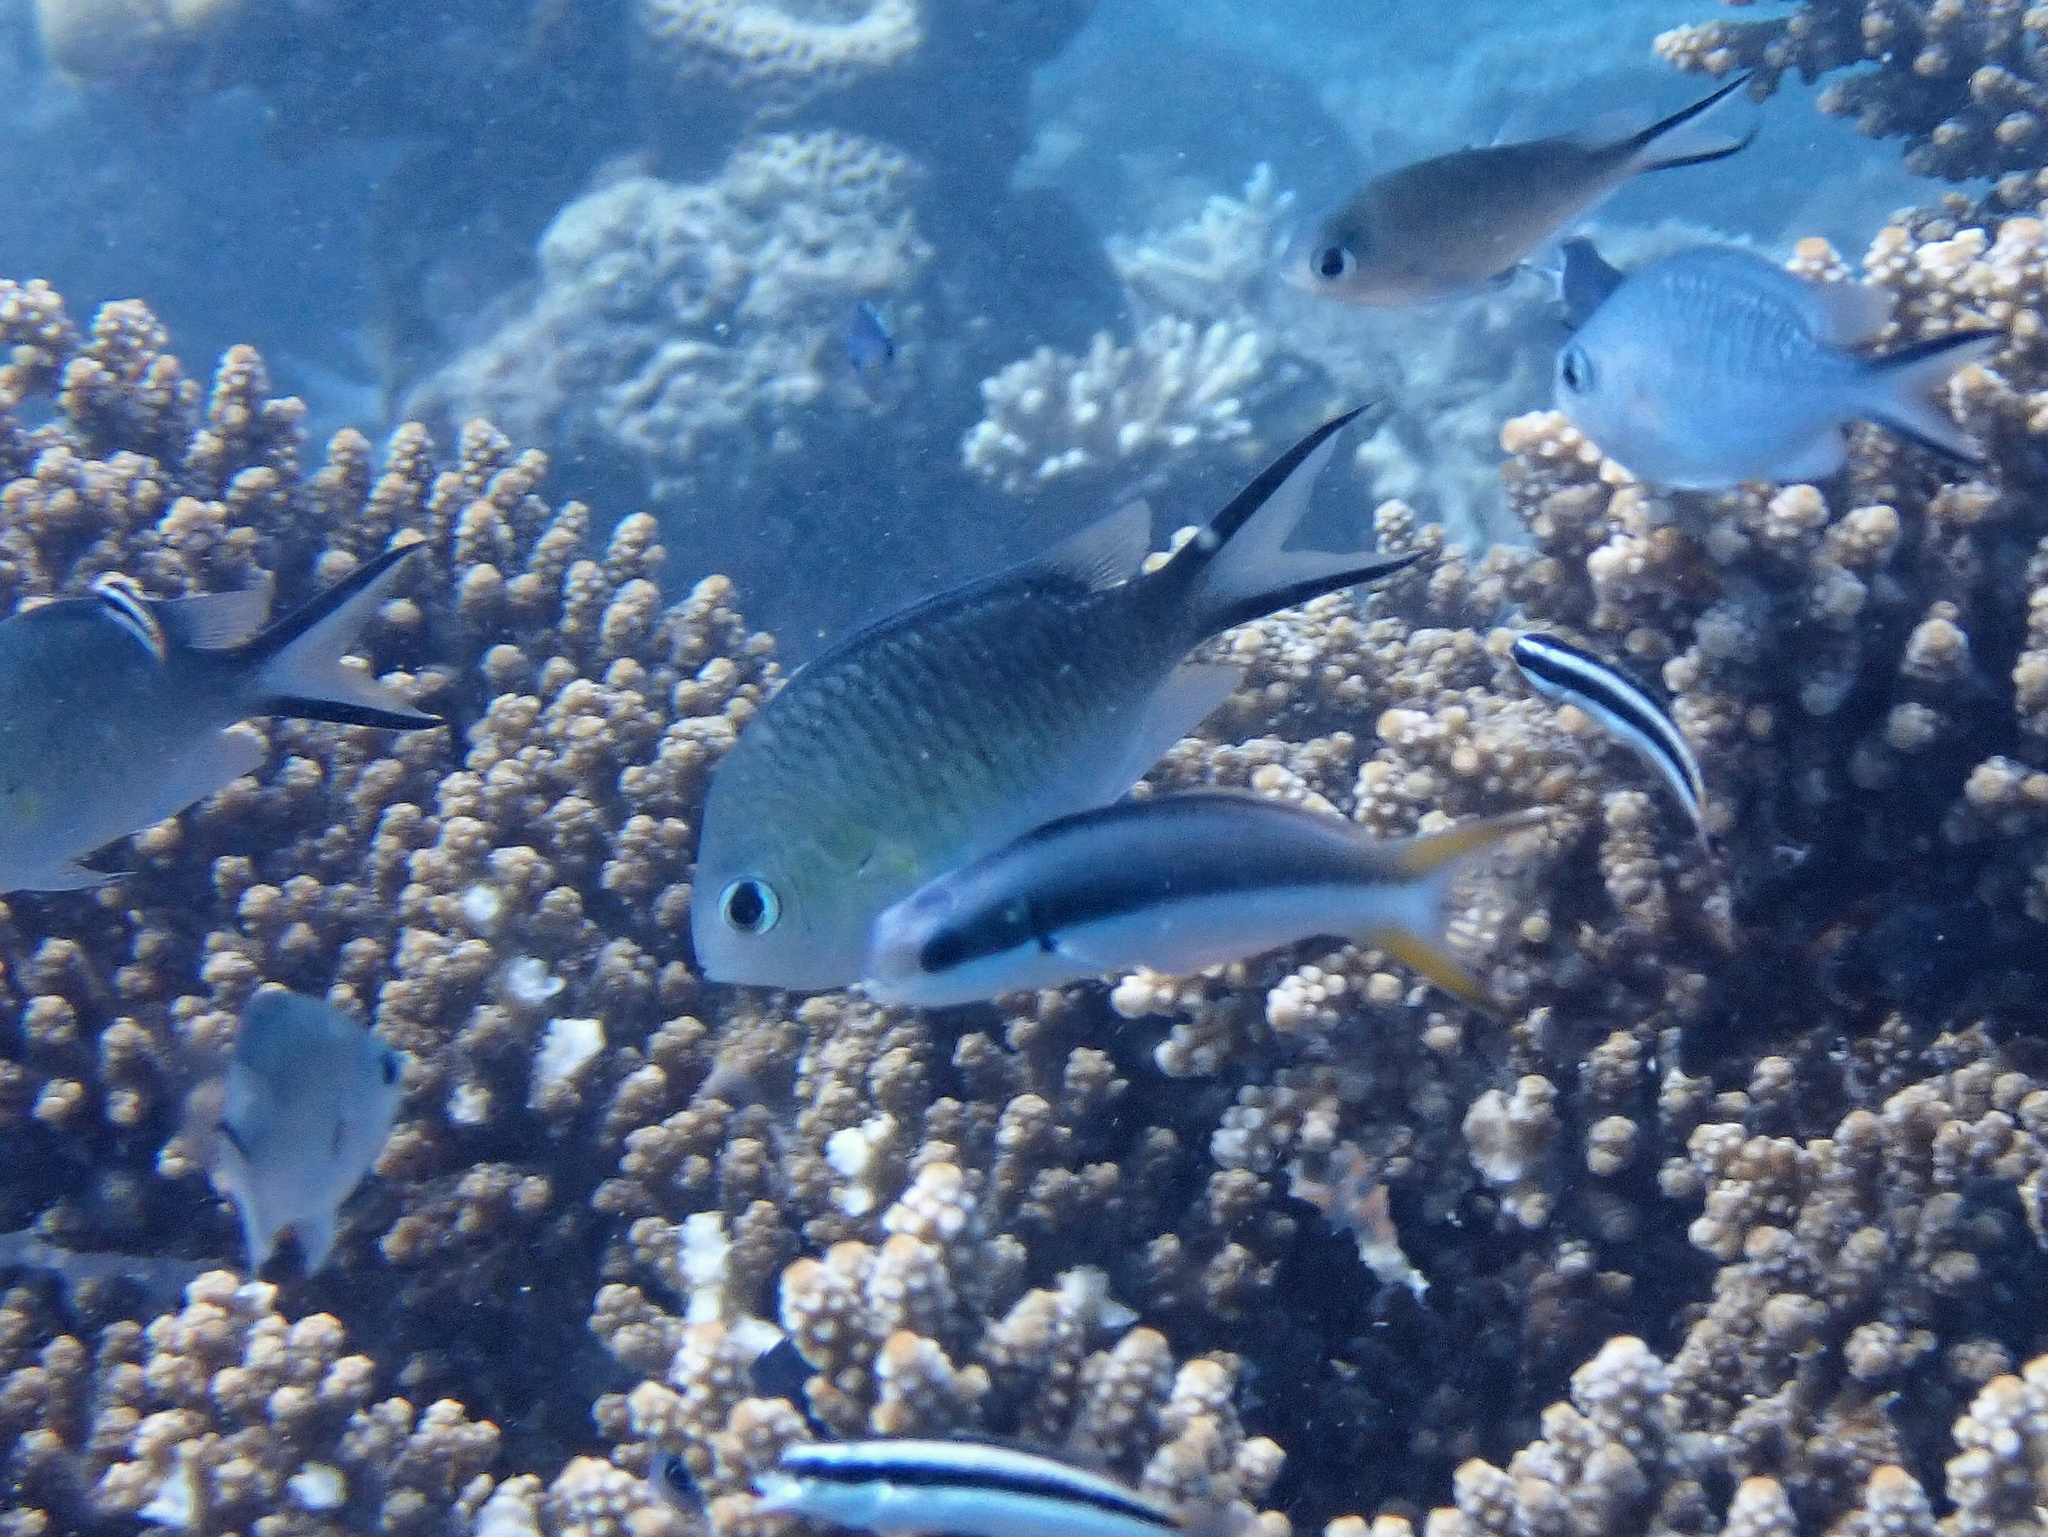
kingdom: Animalia
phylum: Chordata
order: Perciformes
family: Pomacentridae
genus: Chromis
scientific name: Chromis ternatensis
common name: Ternate chromis
